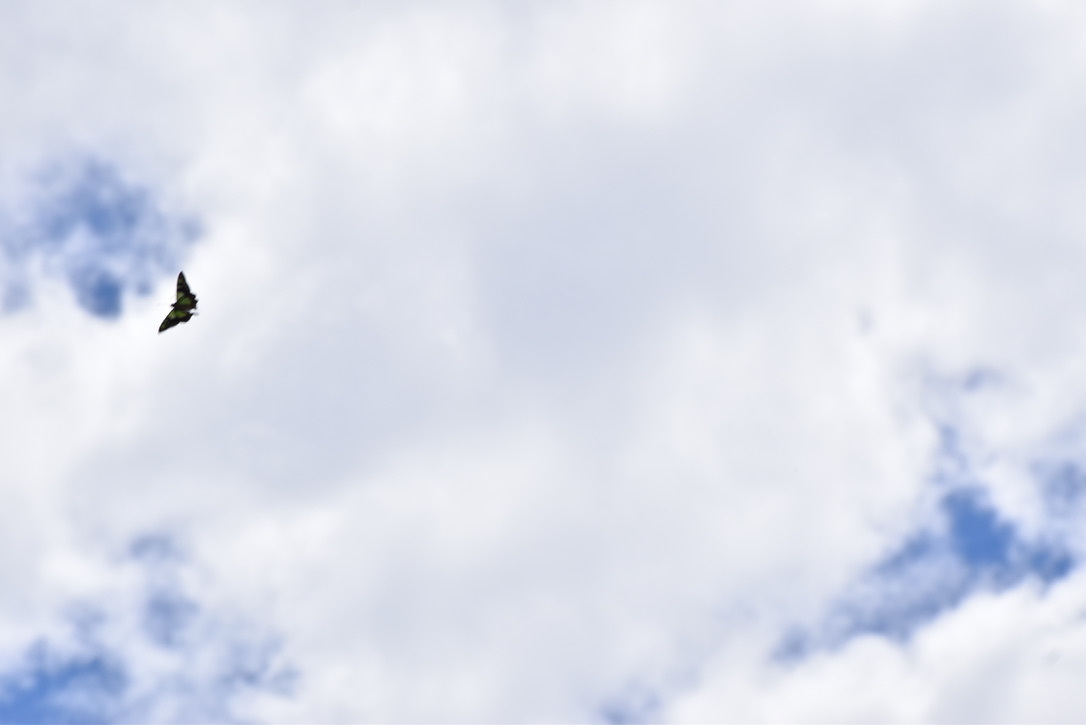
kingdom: Animalia
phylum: Arthropoda
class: Insecta
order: Lepidoptera
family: Papilionidae
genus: Graphium
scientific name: Graphium macleayanus
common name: Macleay's swallowtail
